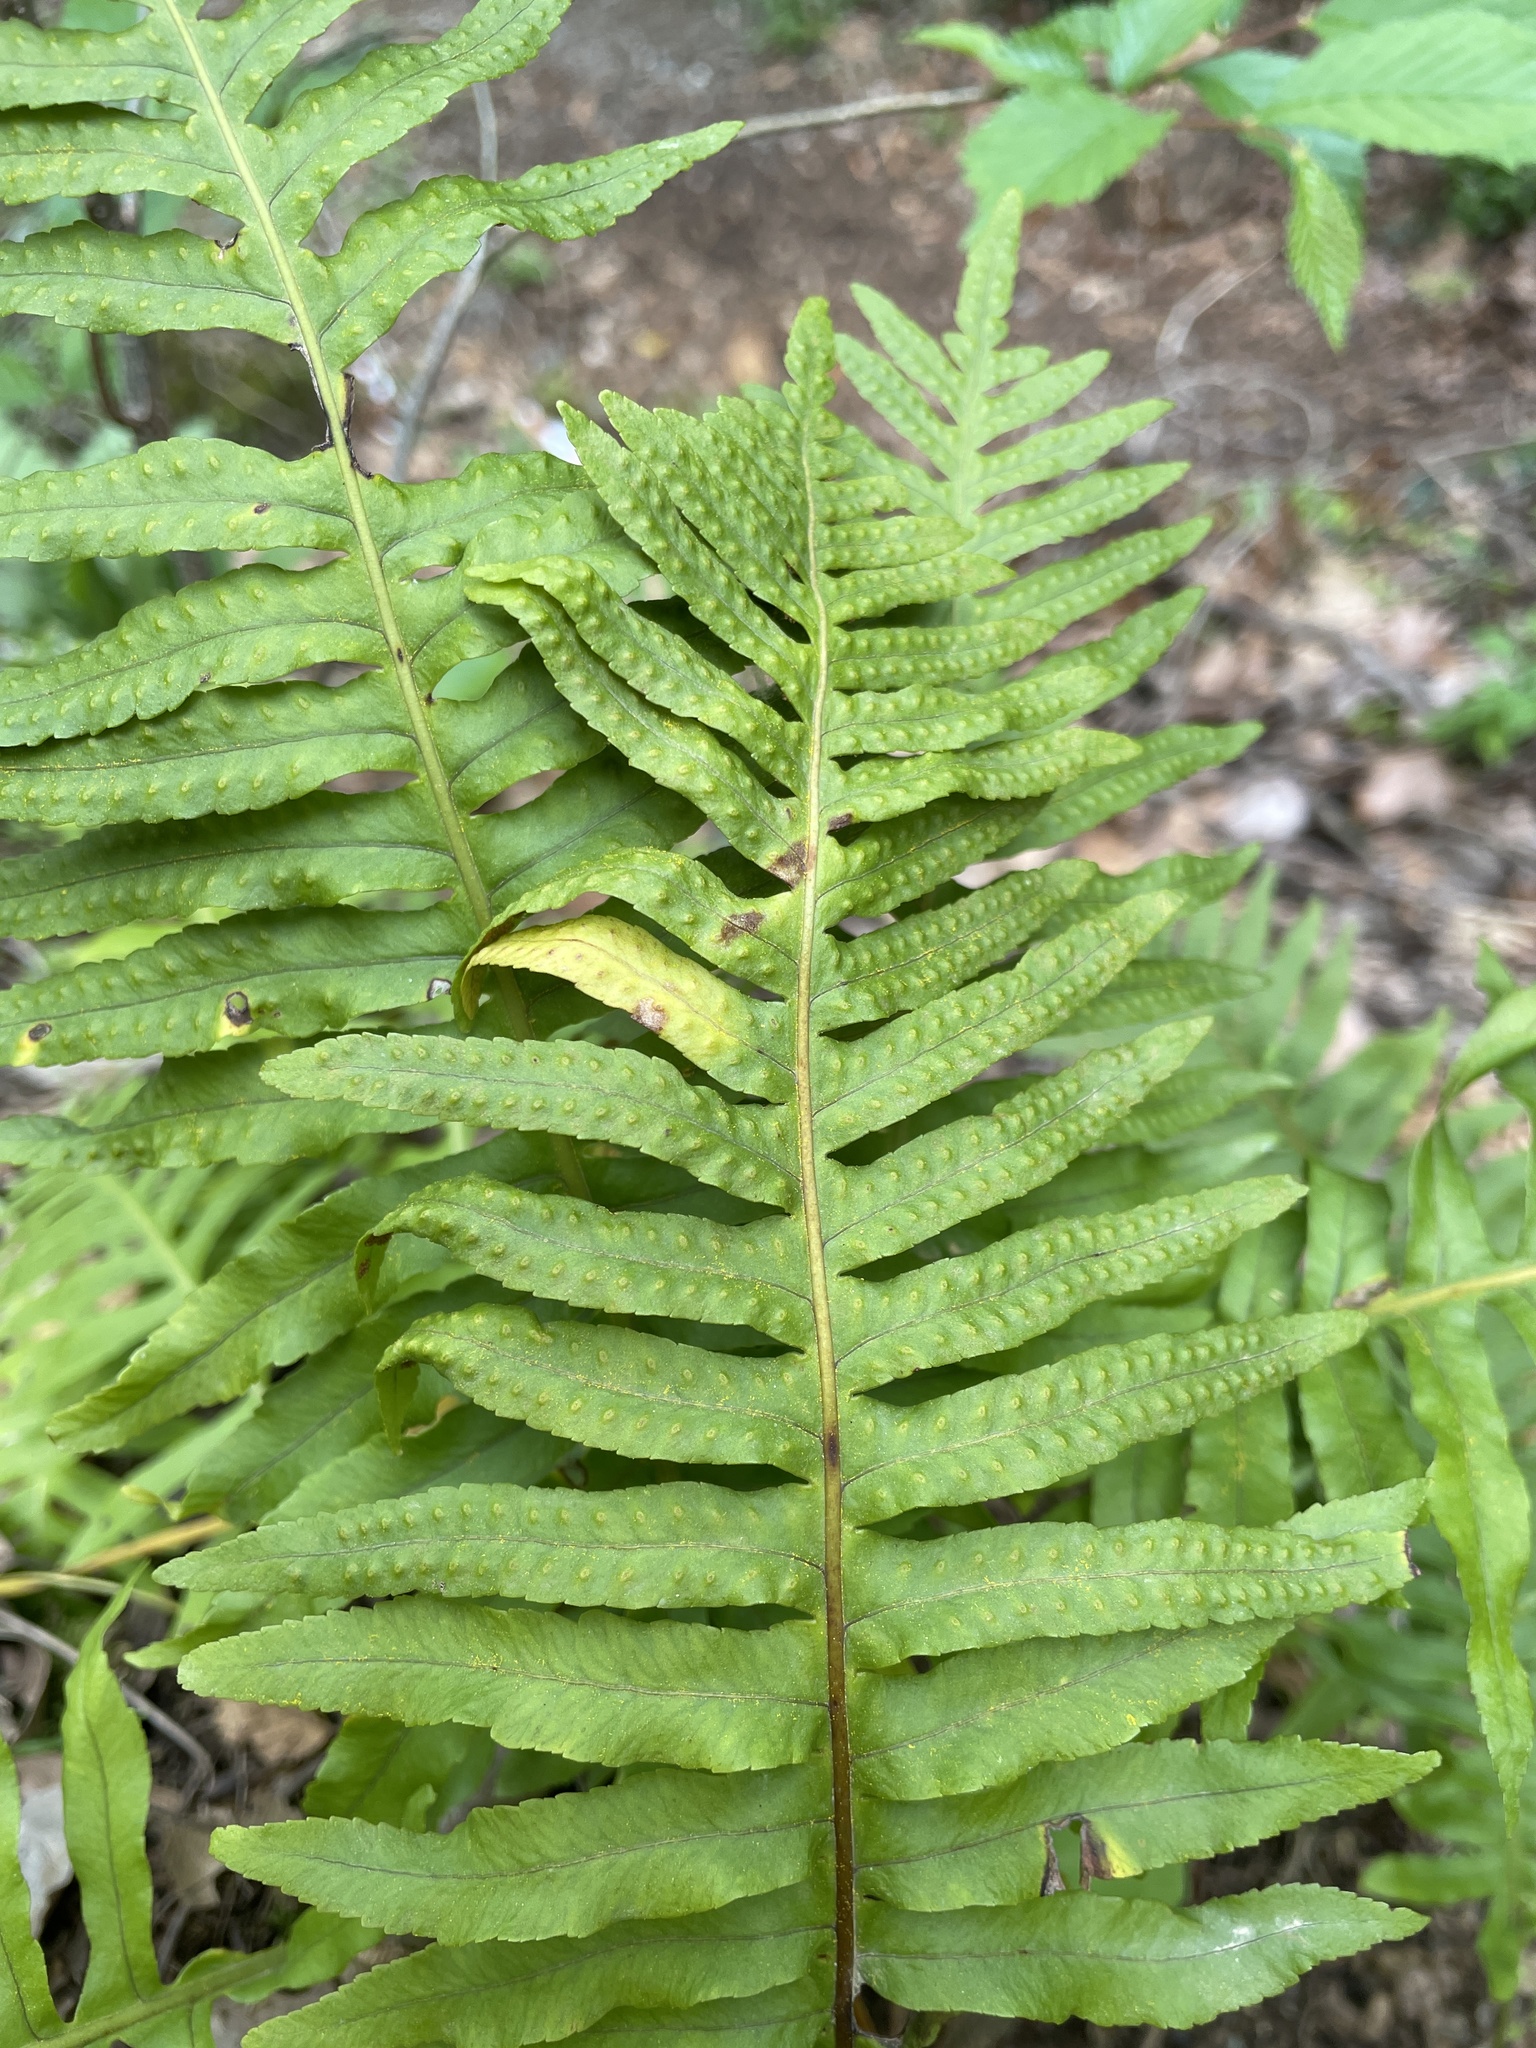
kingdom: Plantae
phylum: Tracheophyta
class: Polypodiopsida
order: Polypodiales
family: Polypodiaceae
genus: Polypodium
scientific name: Polypodium cambricum
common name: Southern polypody
